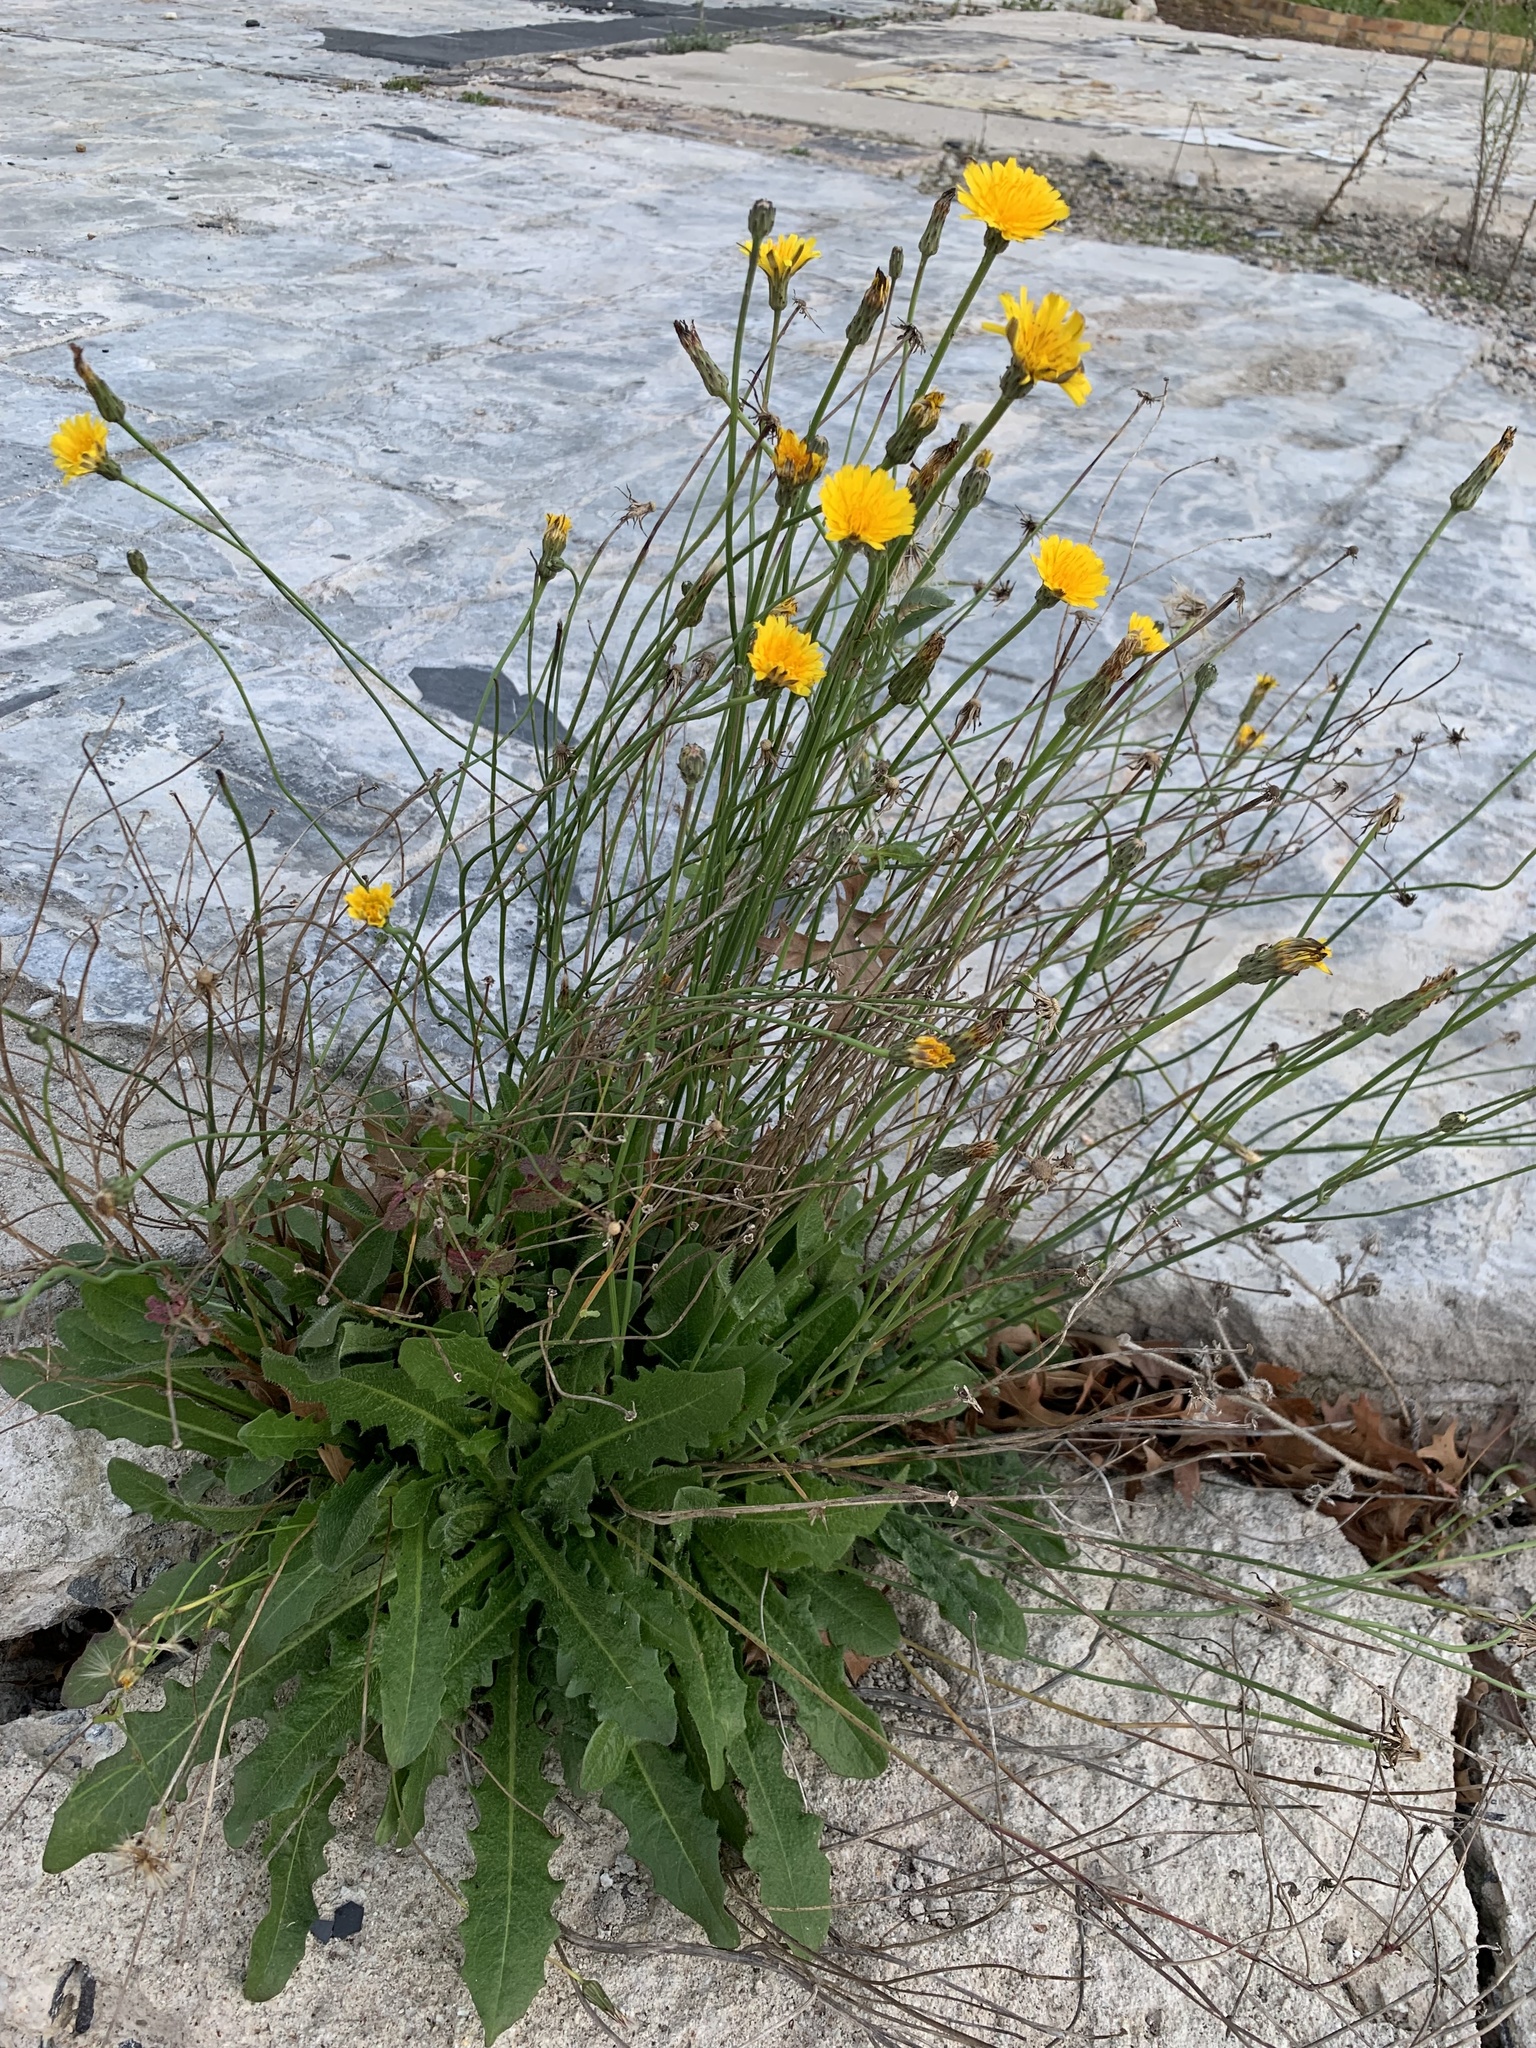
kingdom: Plantae
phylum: Tracheophyta
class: Magnoliopsida
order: Asterales
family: Asteraceae
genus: Hypochaeris
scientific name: Hypochaeris radicata
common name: Flatweed
